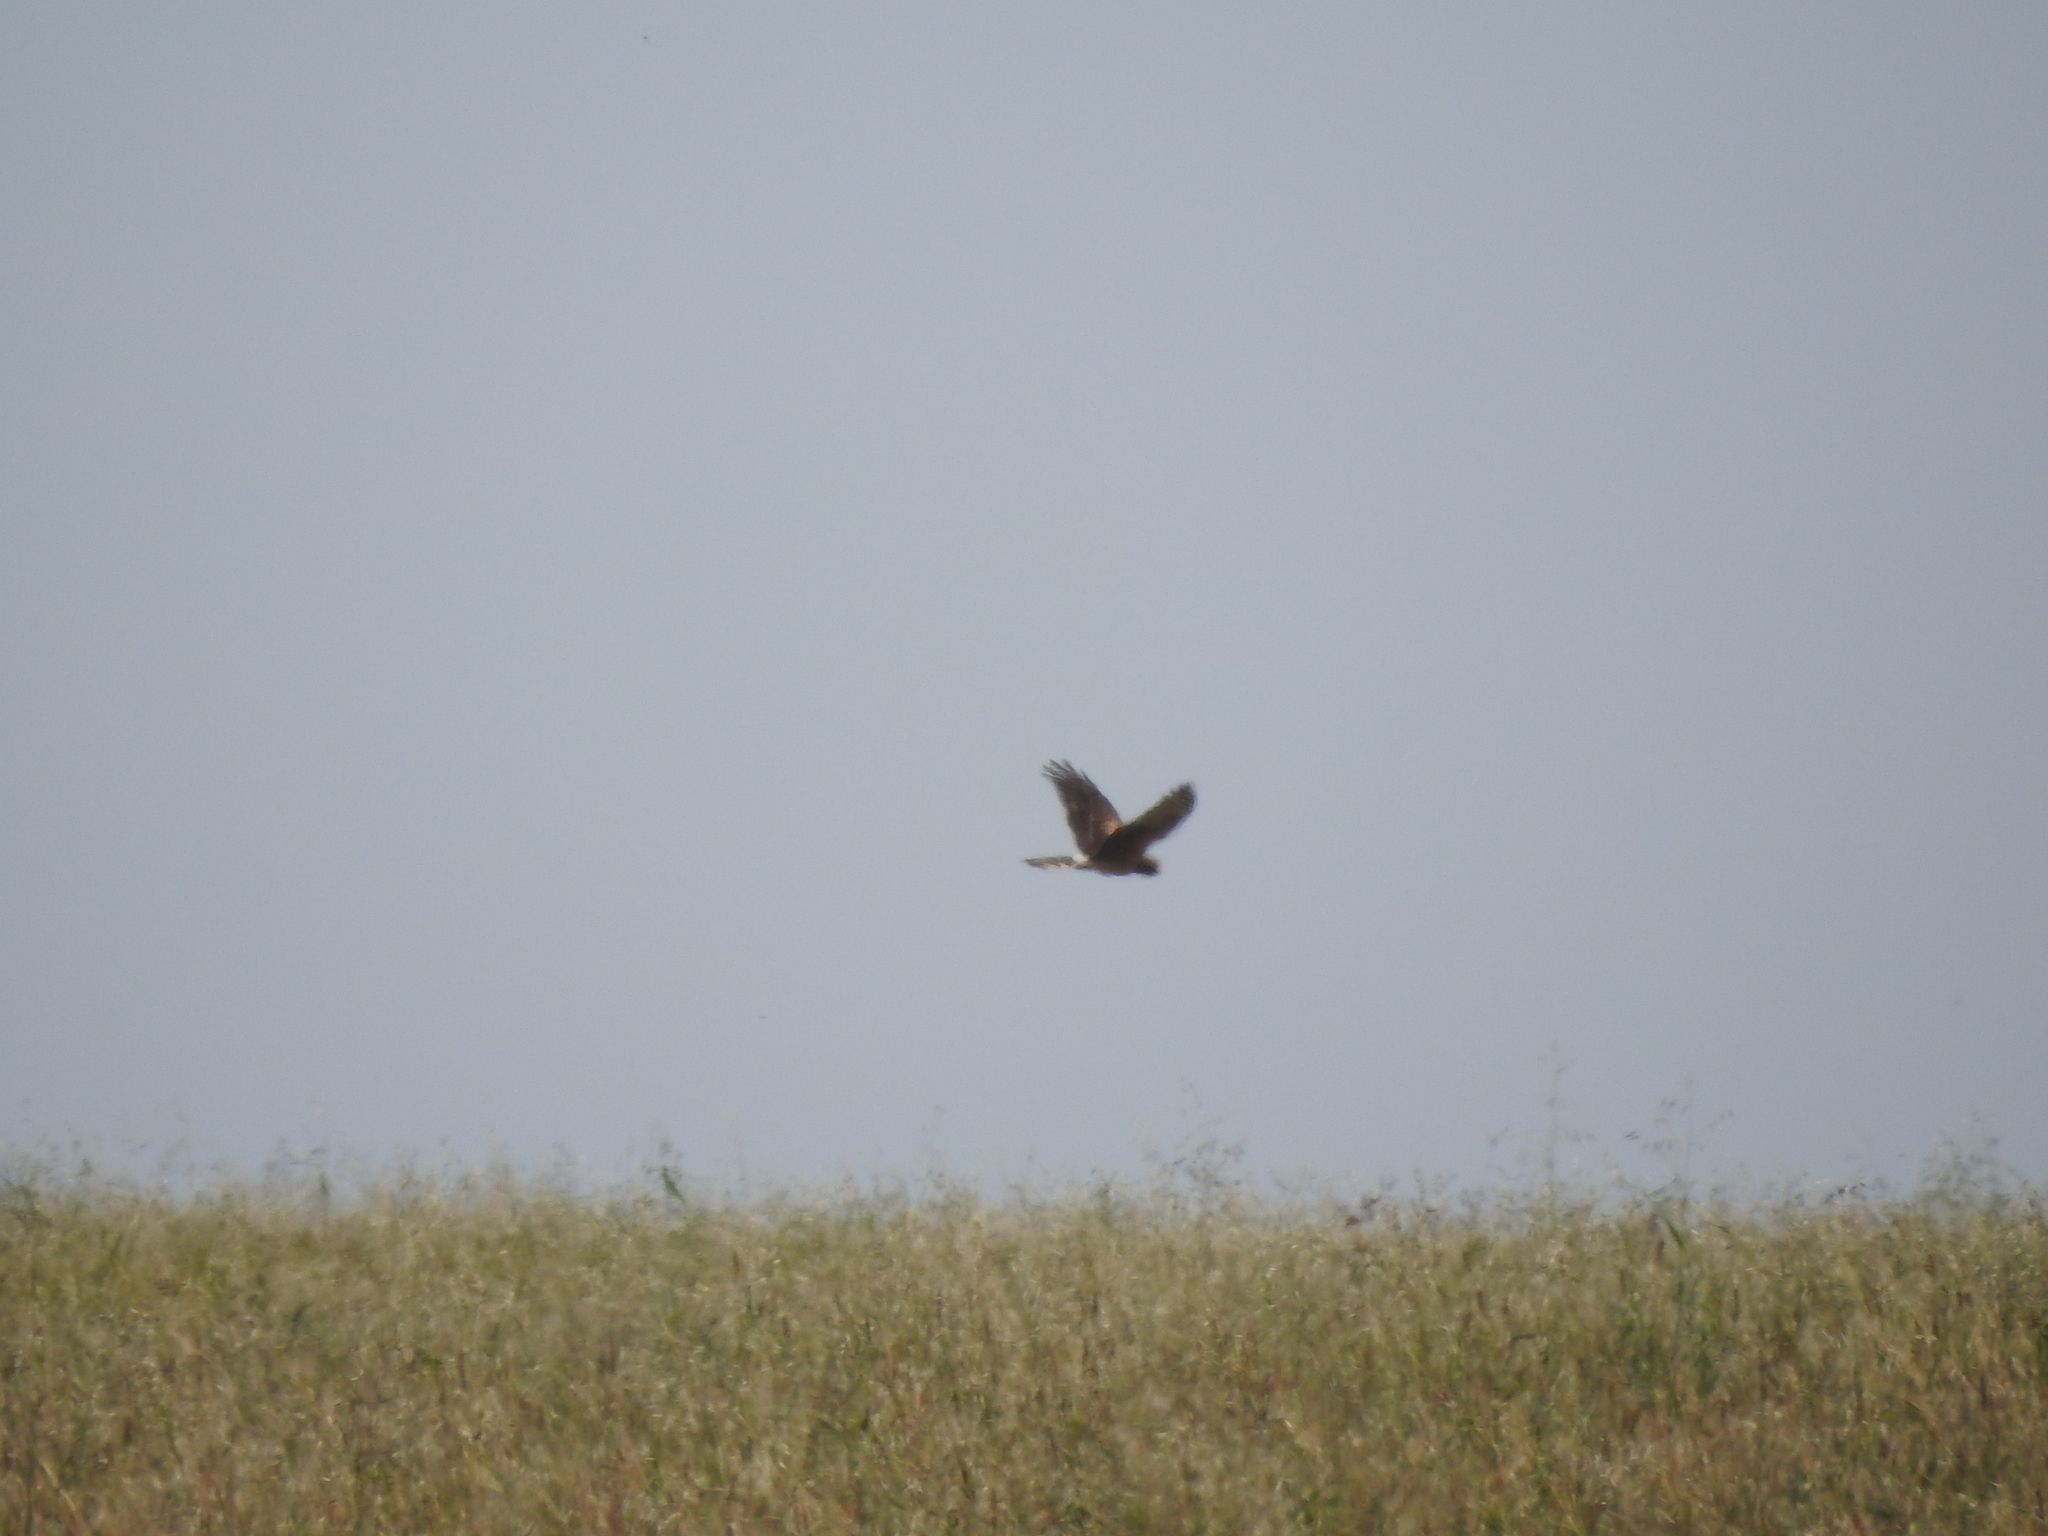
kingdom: Animalia
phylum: Chordata
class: Aves
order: Accipitriformes
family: Accipitridae
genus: Circus
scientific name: Circus cyaneus
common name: Hen harrier
